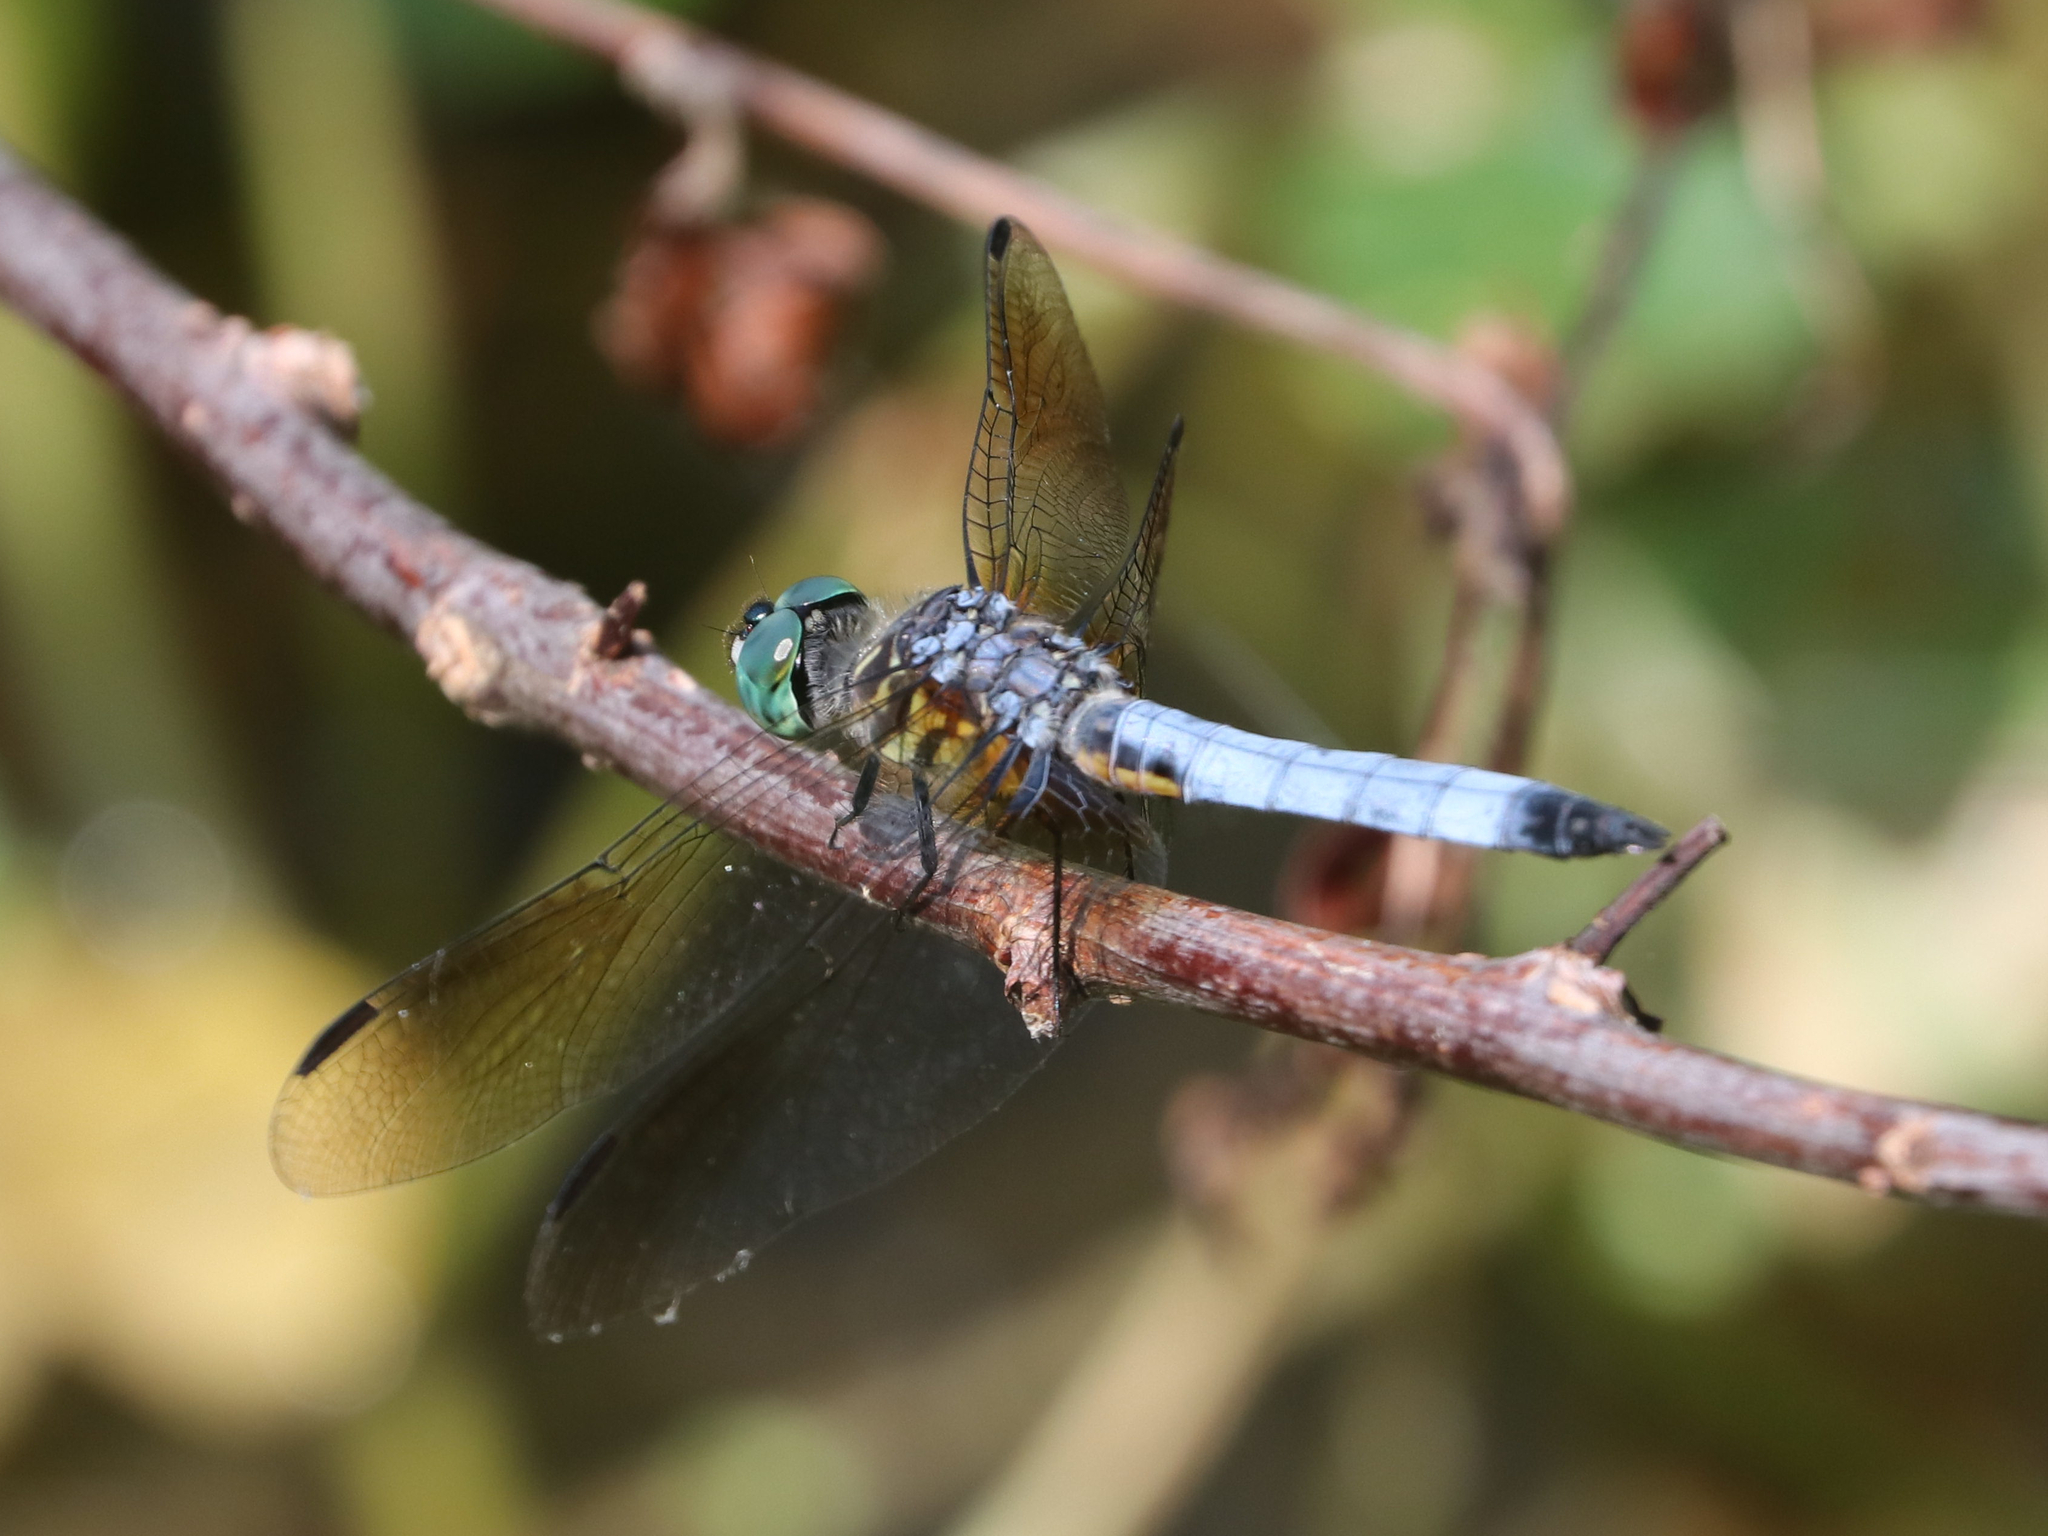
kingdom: Animalia
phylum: Arthropoda
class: Insecta
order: Odonata
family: Libellulidae
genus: Pachydiplax
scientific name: Pachydiplax longipennis
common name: Blue dasher
